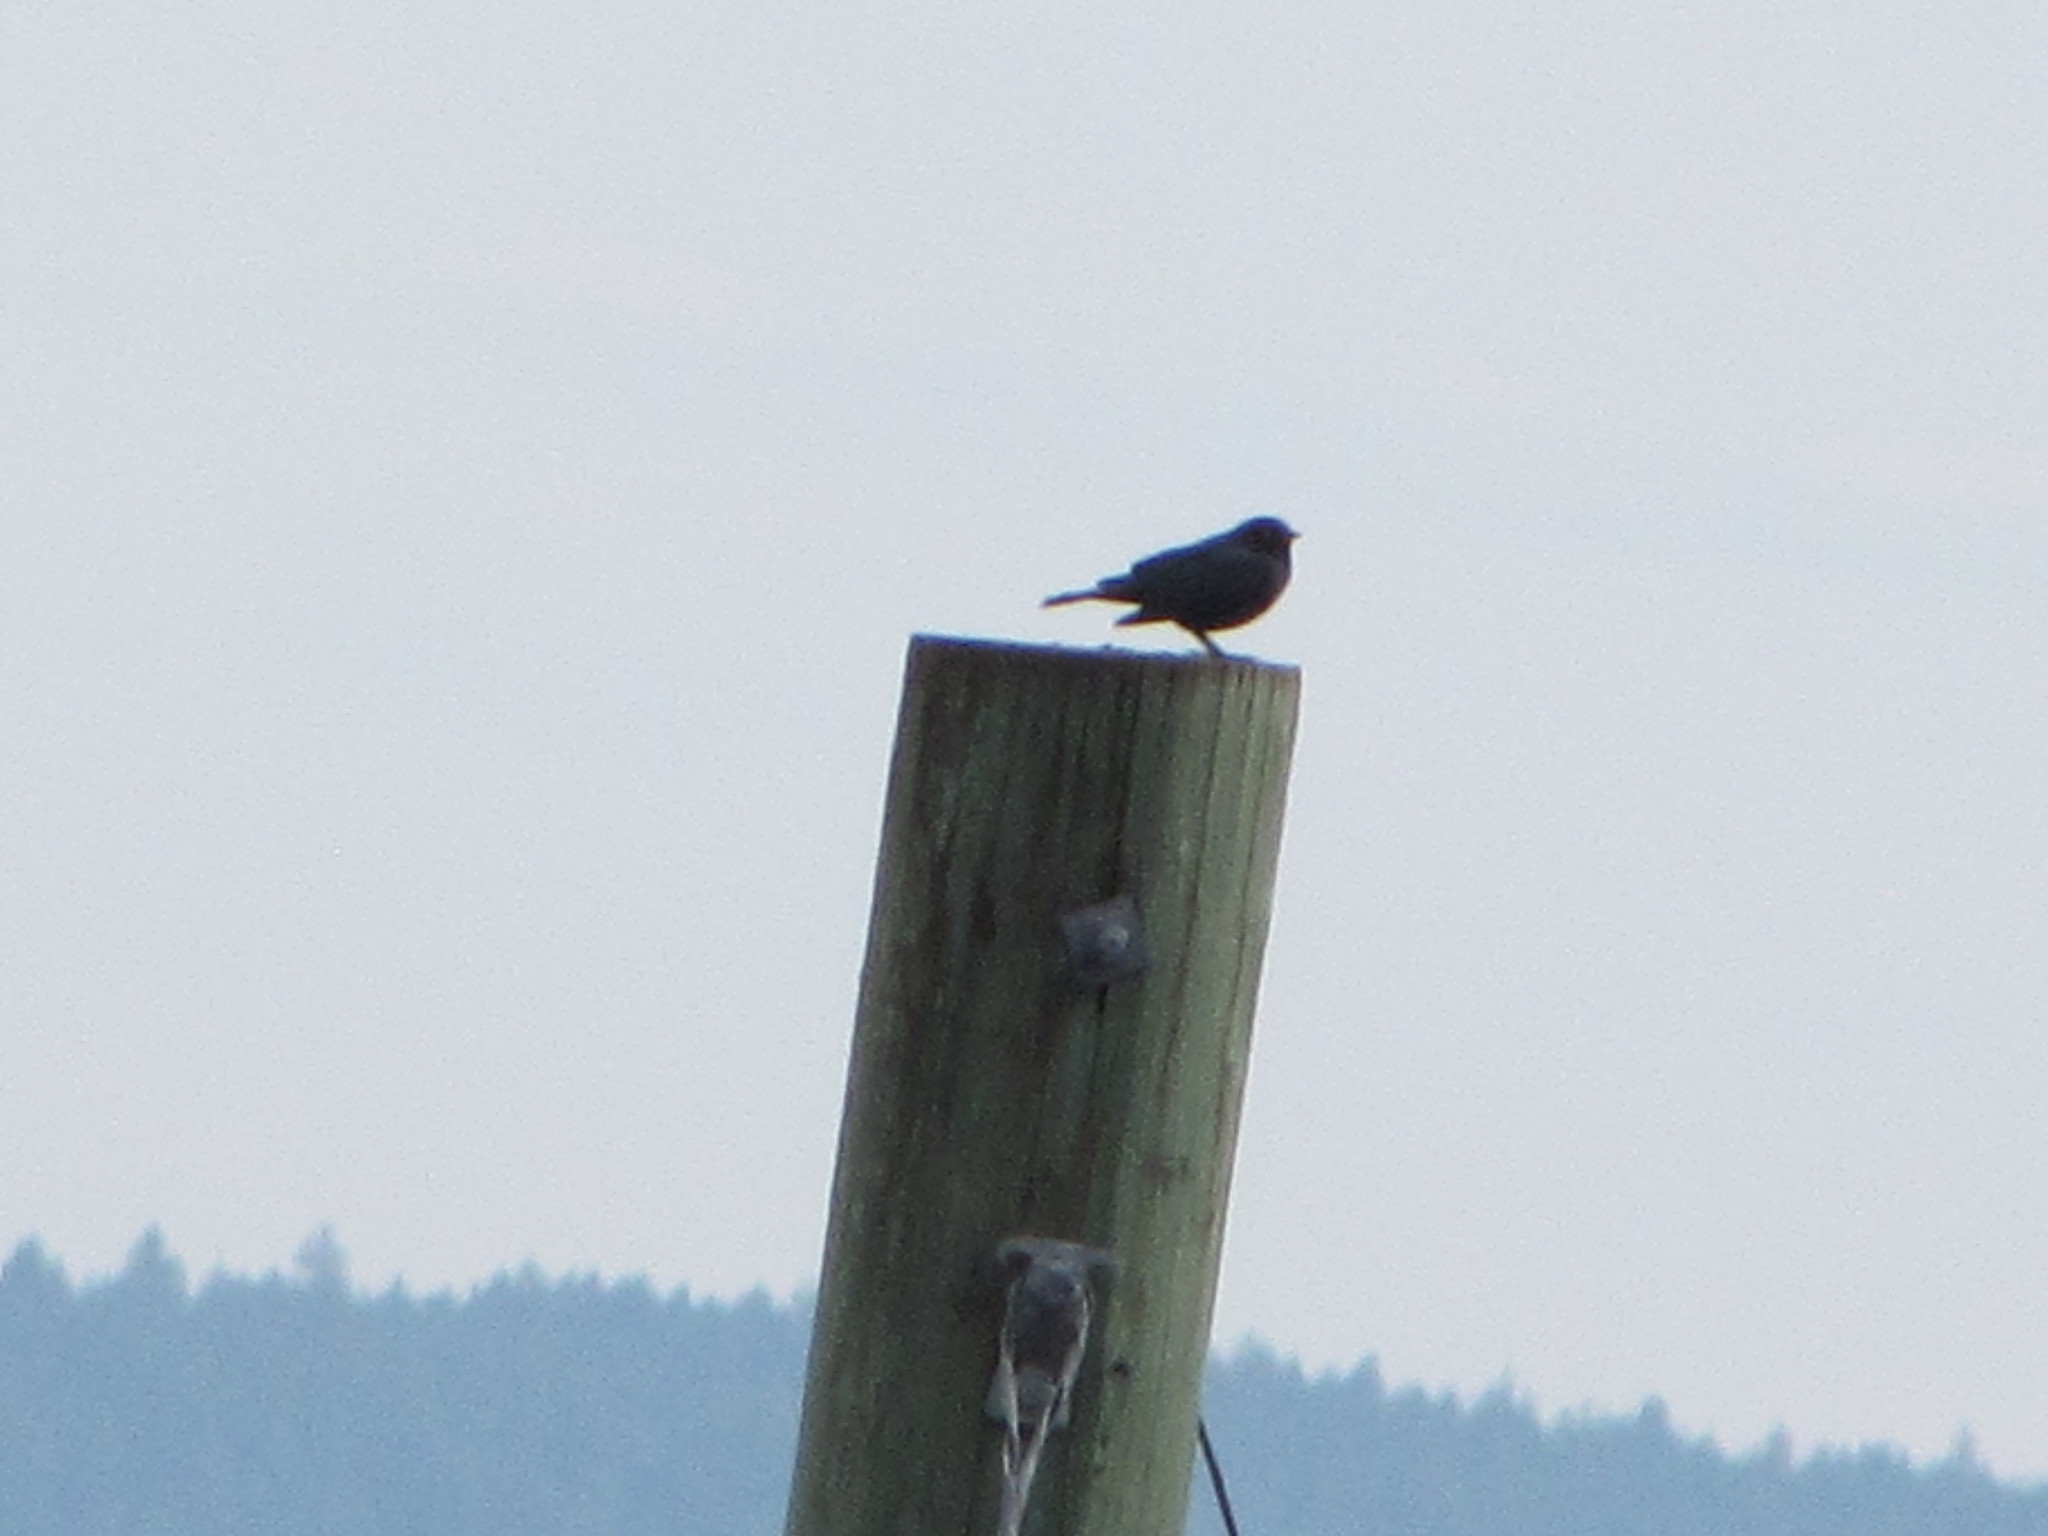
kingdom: Animalia
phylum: Chordata
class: Aves
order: Passeriformes
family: Icteridae
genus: Euphagus
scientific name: Euphagus cyanocephalus
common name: Brewer's blackbird
